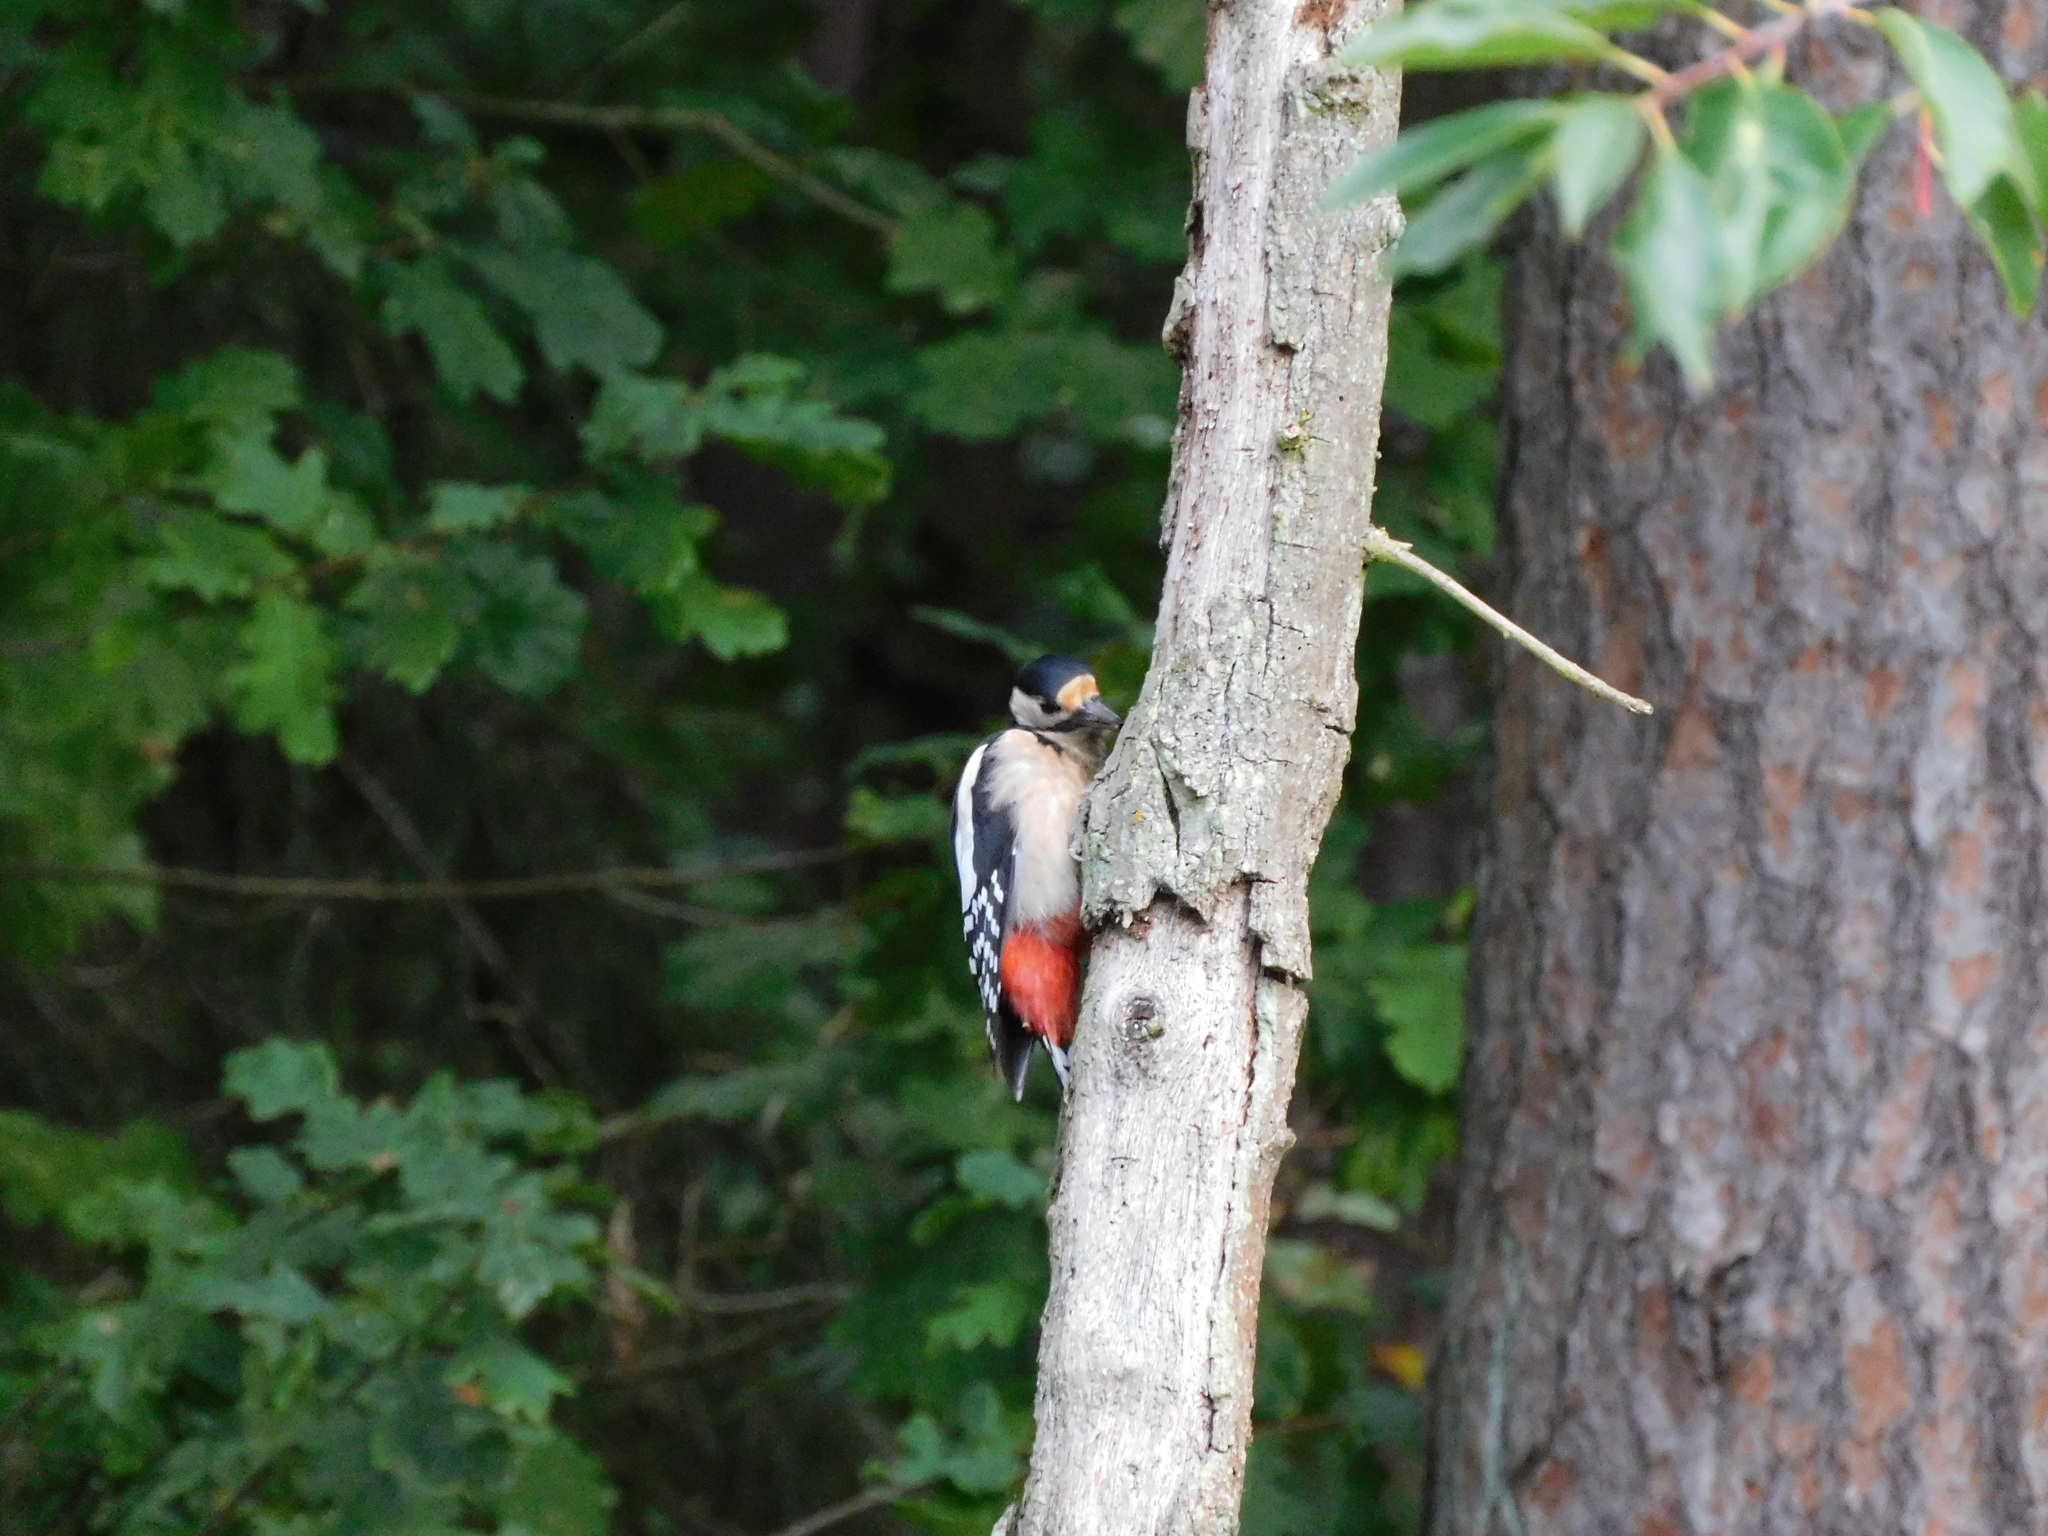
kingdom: Animalia
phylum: Chordata
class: Aves
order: Piciformes
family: Picidae
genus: Dendrocopos
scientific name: Dendrocopos major
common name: Great spotted woodpecker
